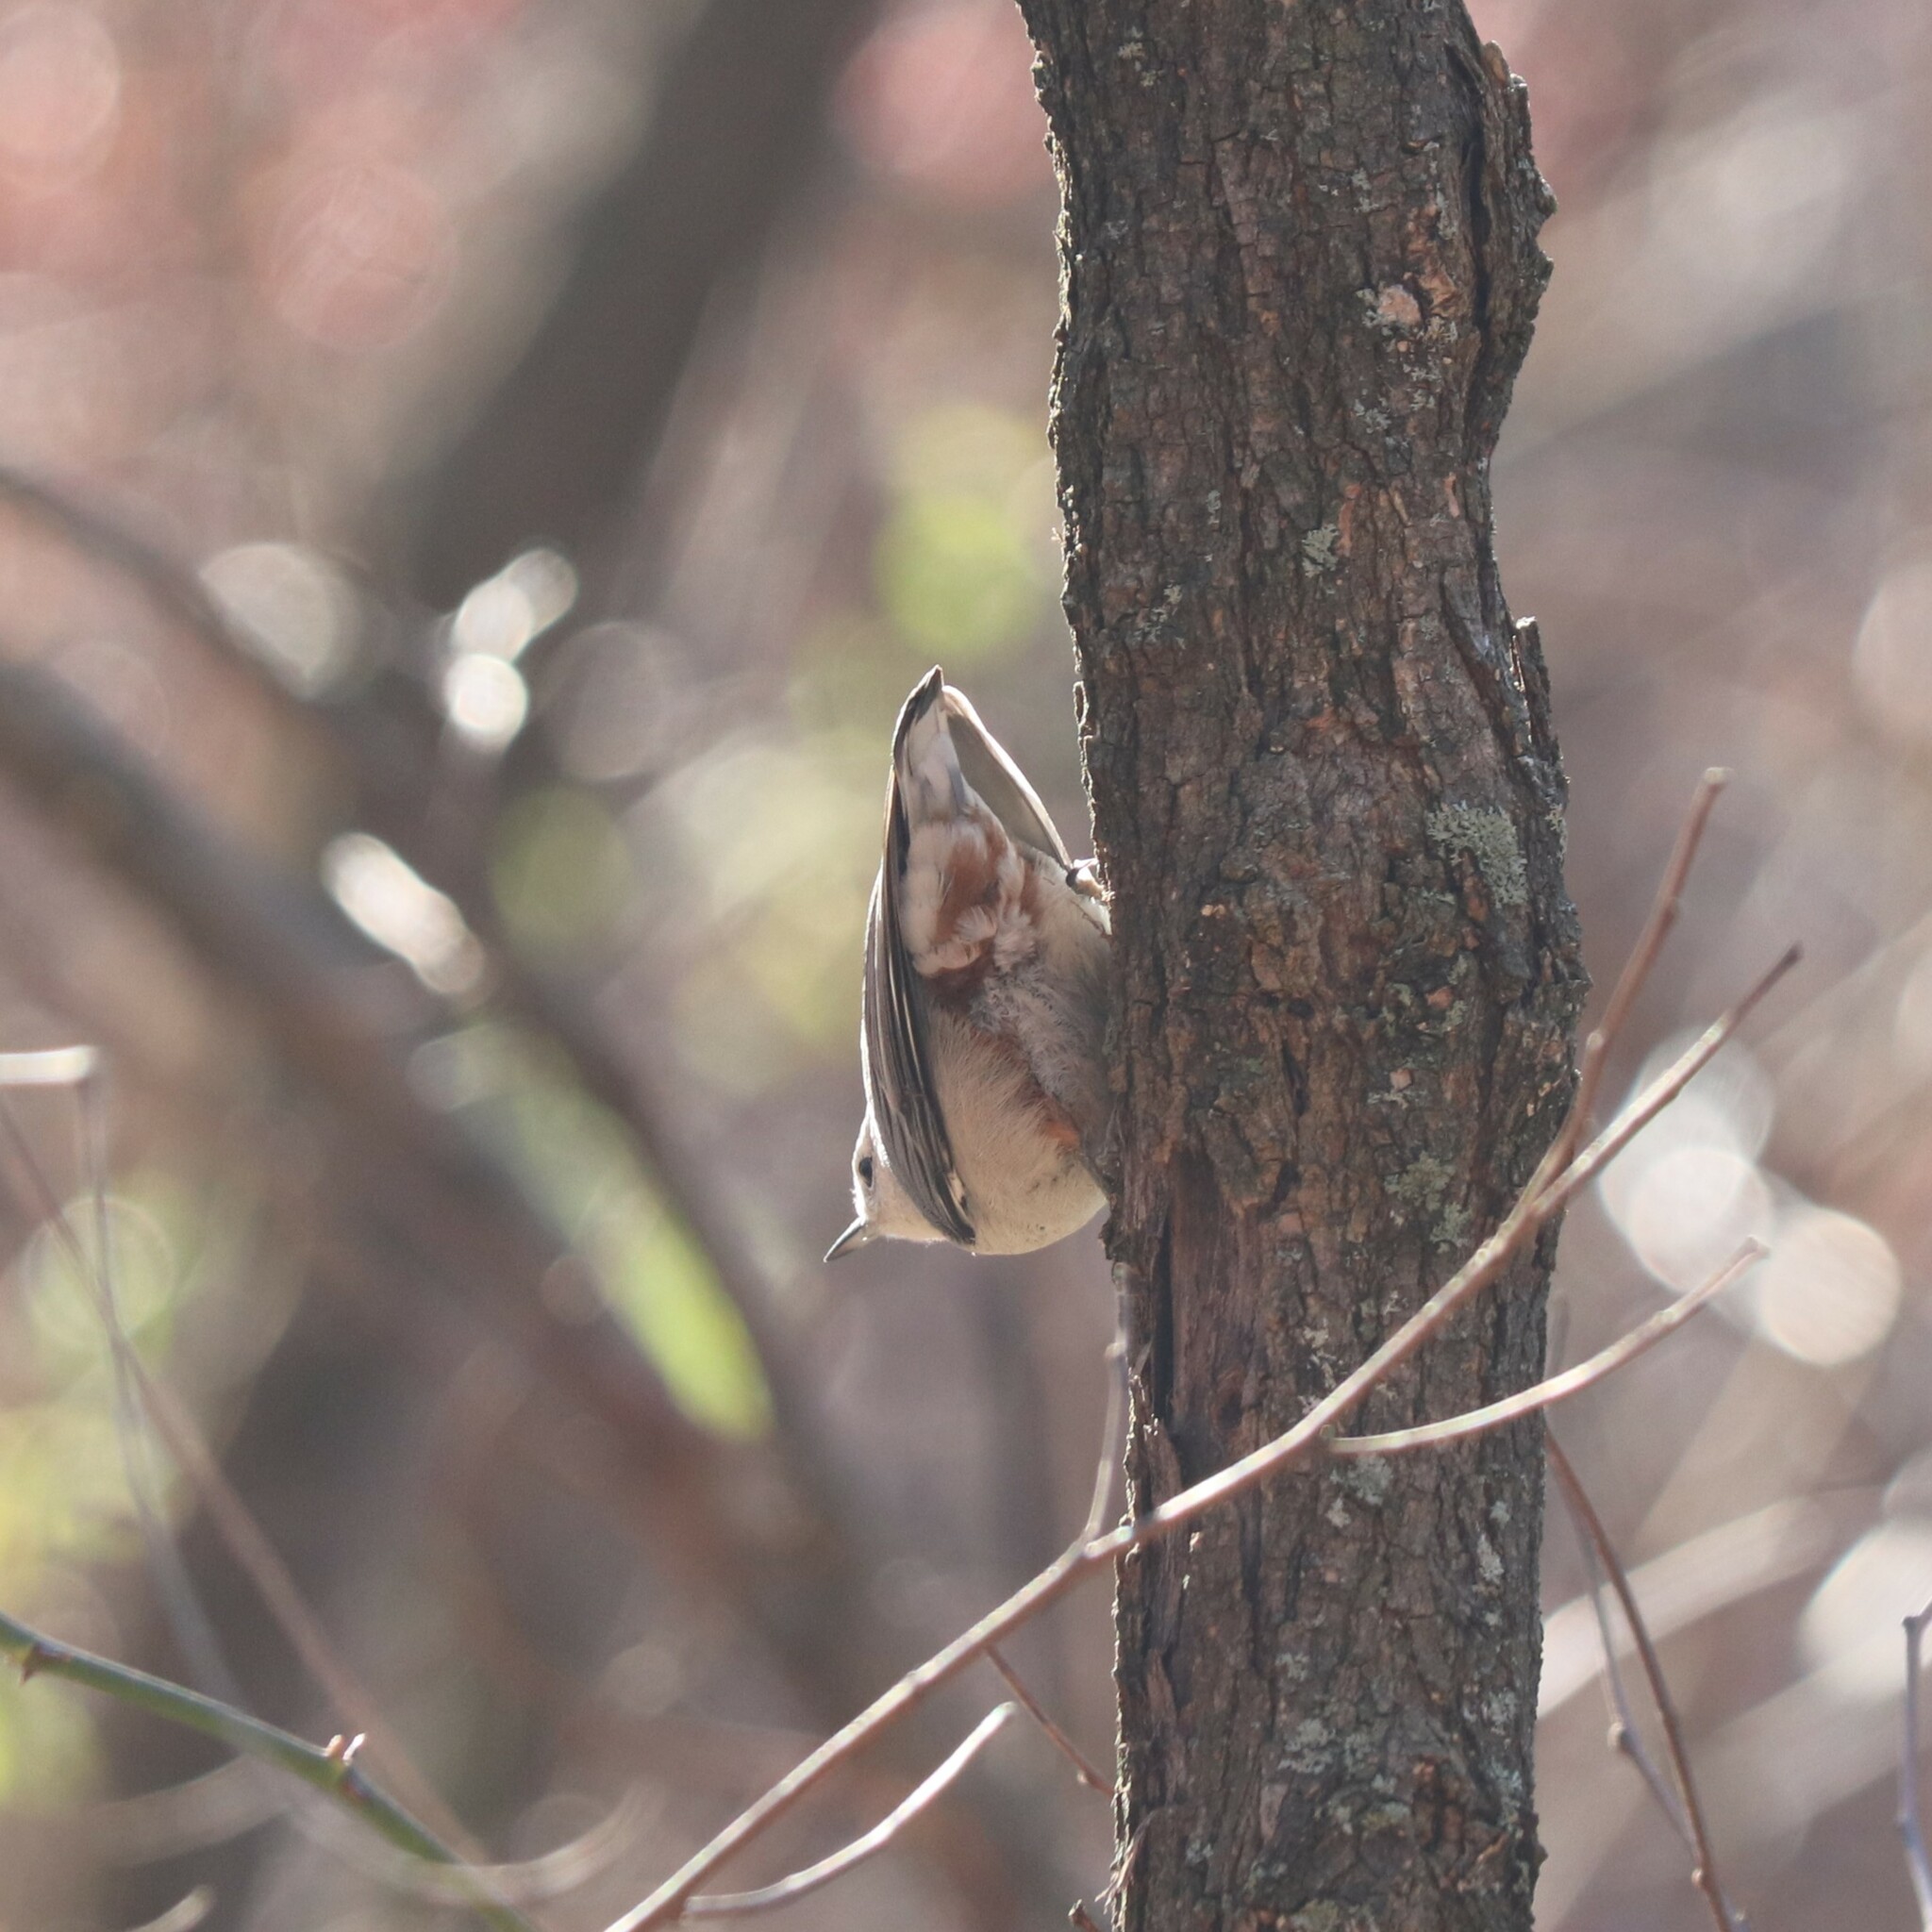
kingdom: Animalia
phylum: Chordata
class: Aves
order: Passeriformes
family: Sittidae
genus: Sitta
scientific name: Sitta carolinensis
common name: White-breasted nuthatch
